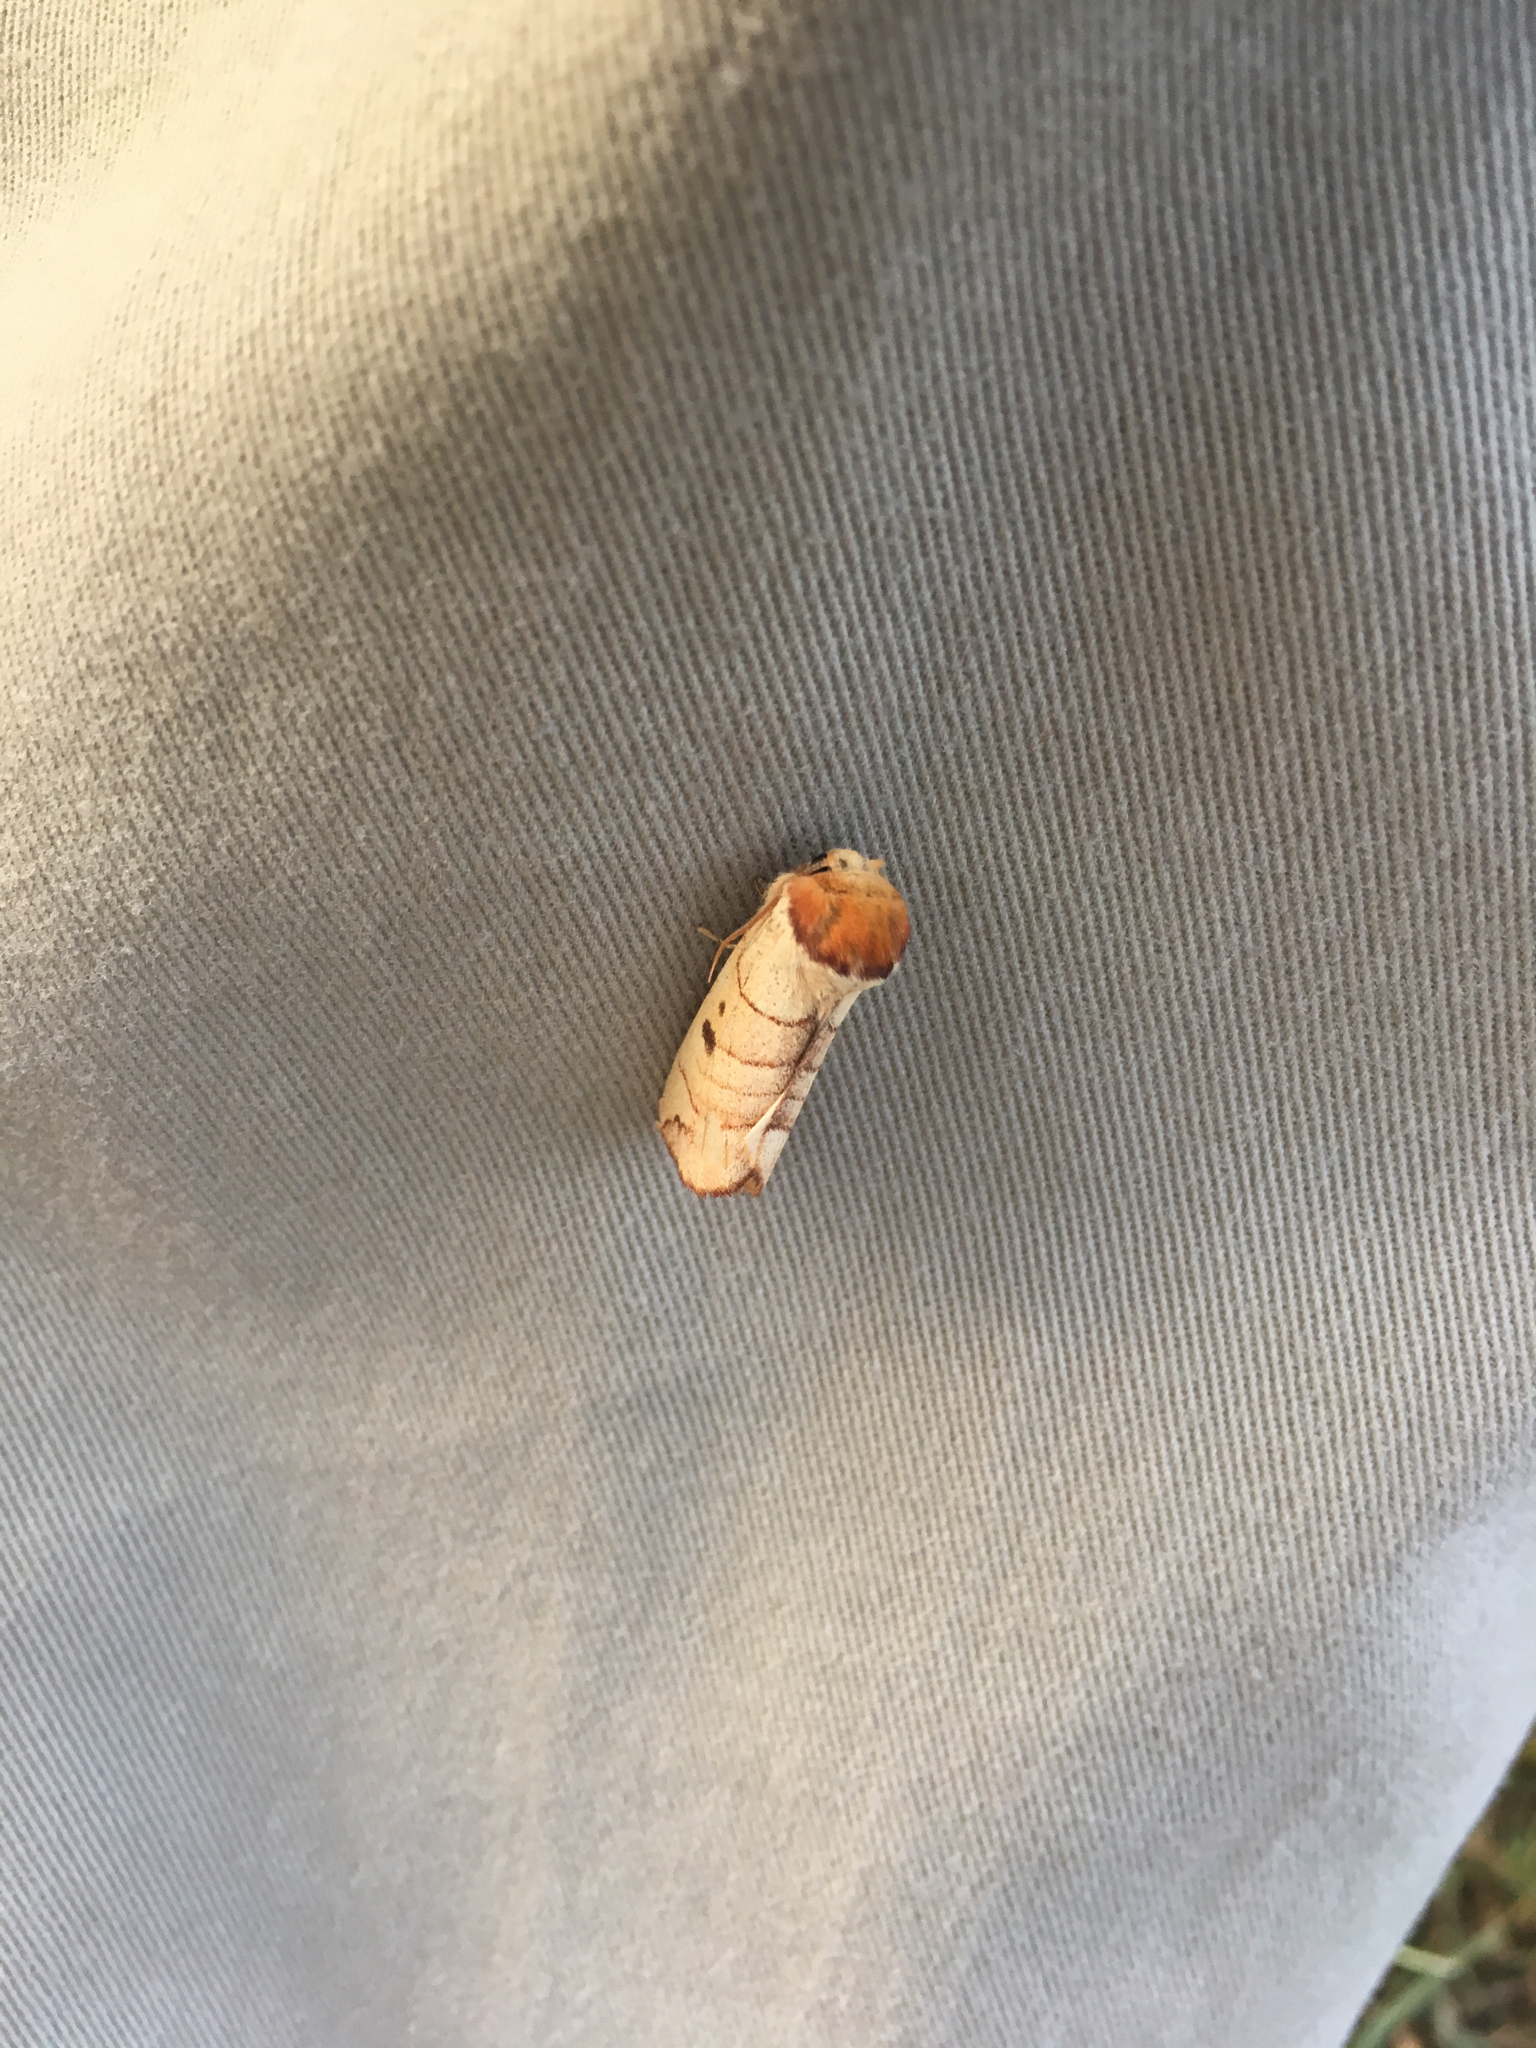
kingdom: Animalia
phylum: Arthropoda
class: Insecta
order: Lepidoptera
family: Notodontidae
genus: Datana
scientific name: Datana perspicua
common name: Spotted datana
